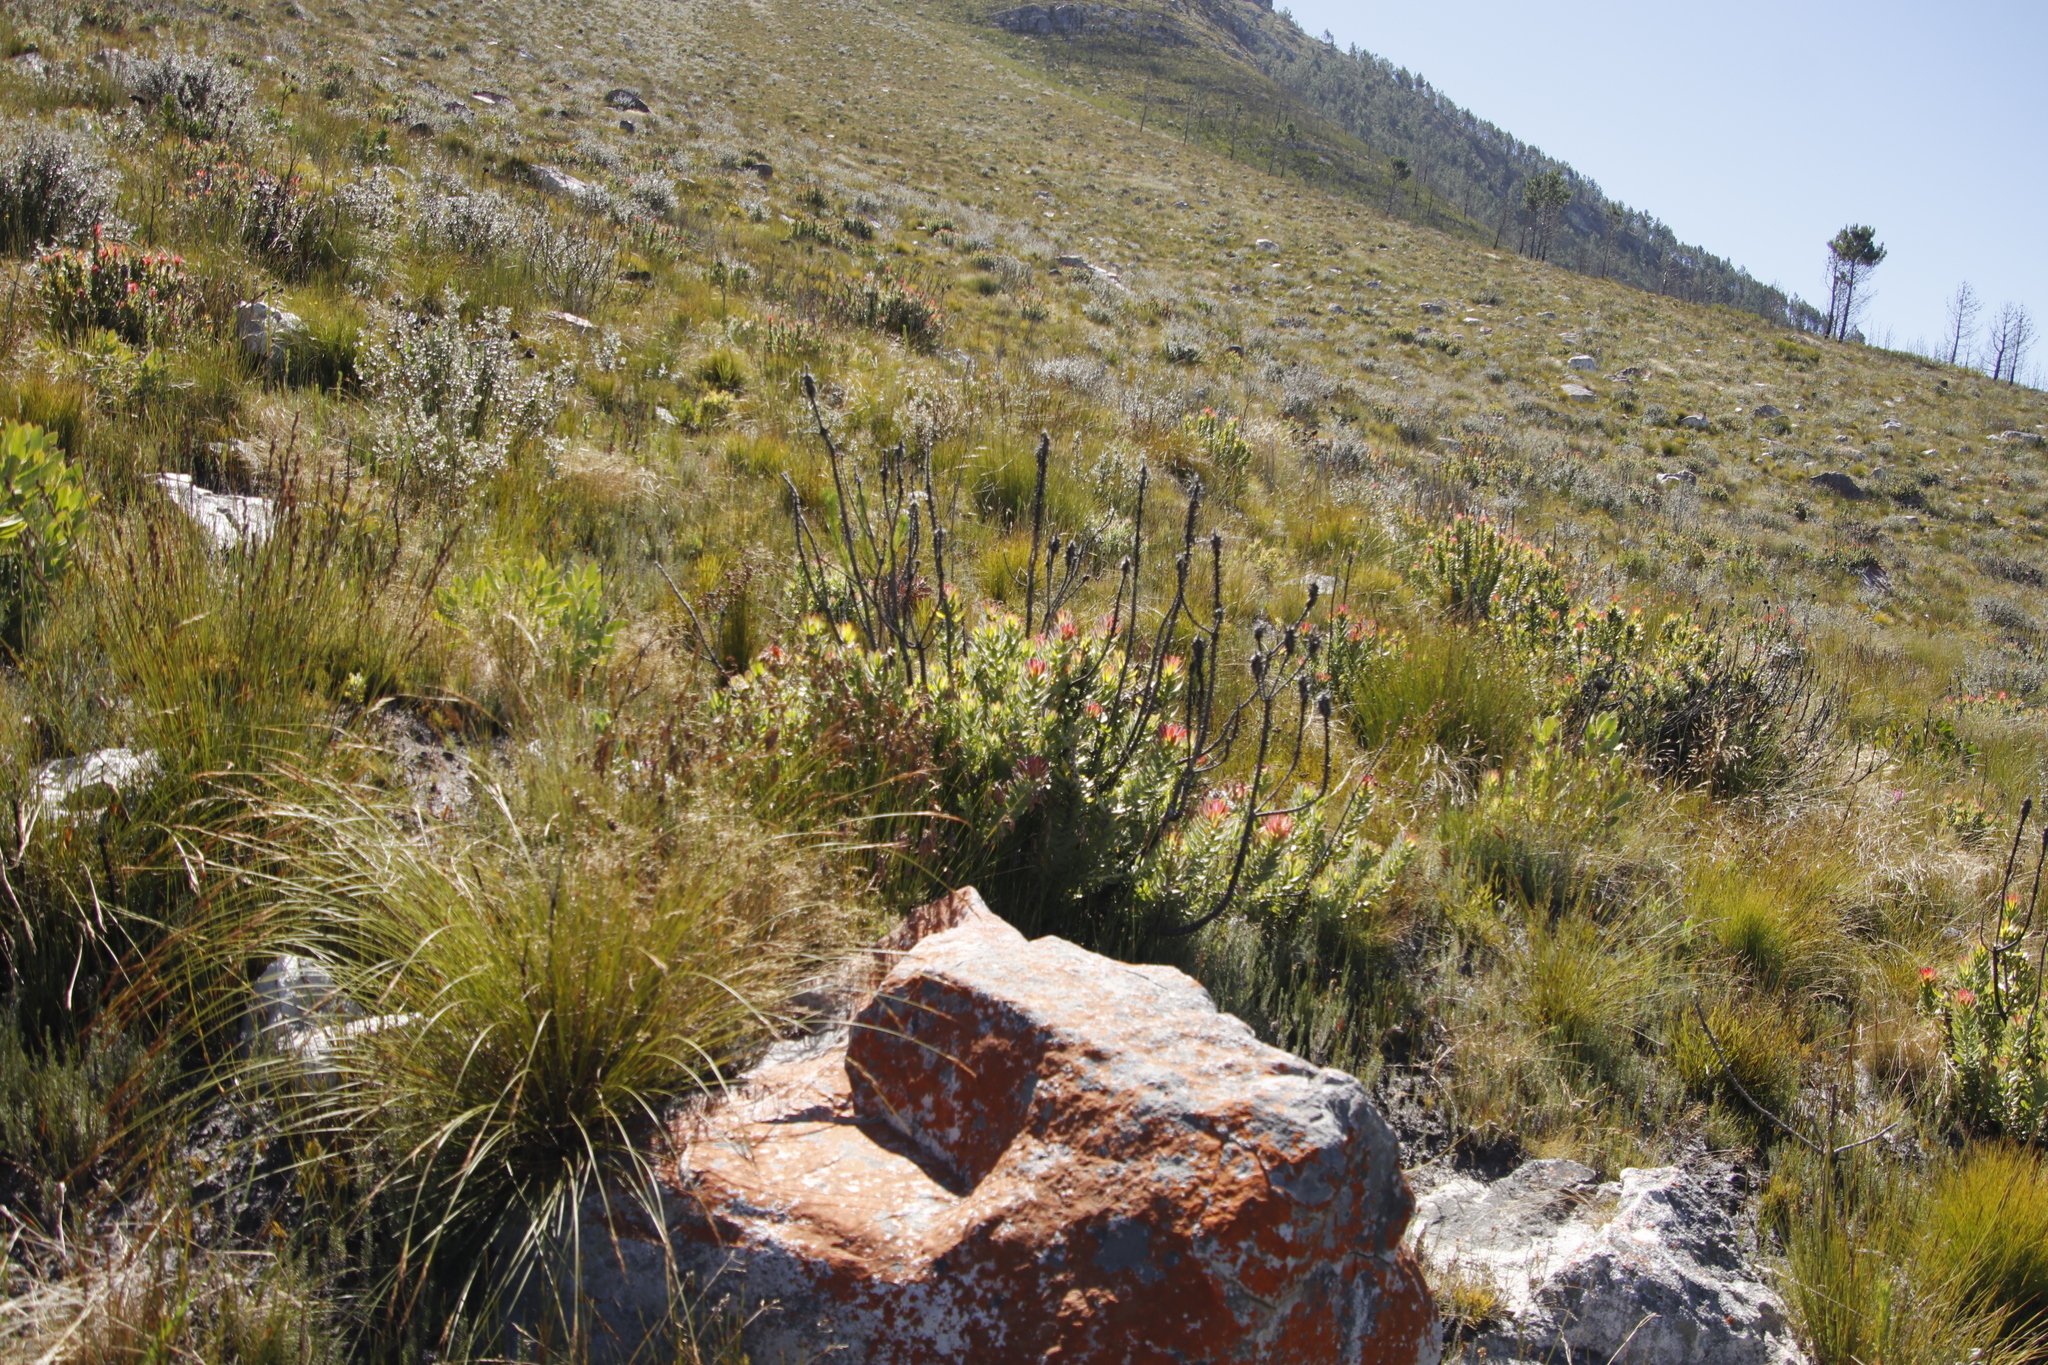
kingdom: Plantae
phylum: Tracheophyta
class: Magnoliopsida
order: Proteales
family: Proteaceae
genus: Mimetes
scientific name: Mimetes cucullatus
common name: Common pagoda
